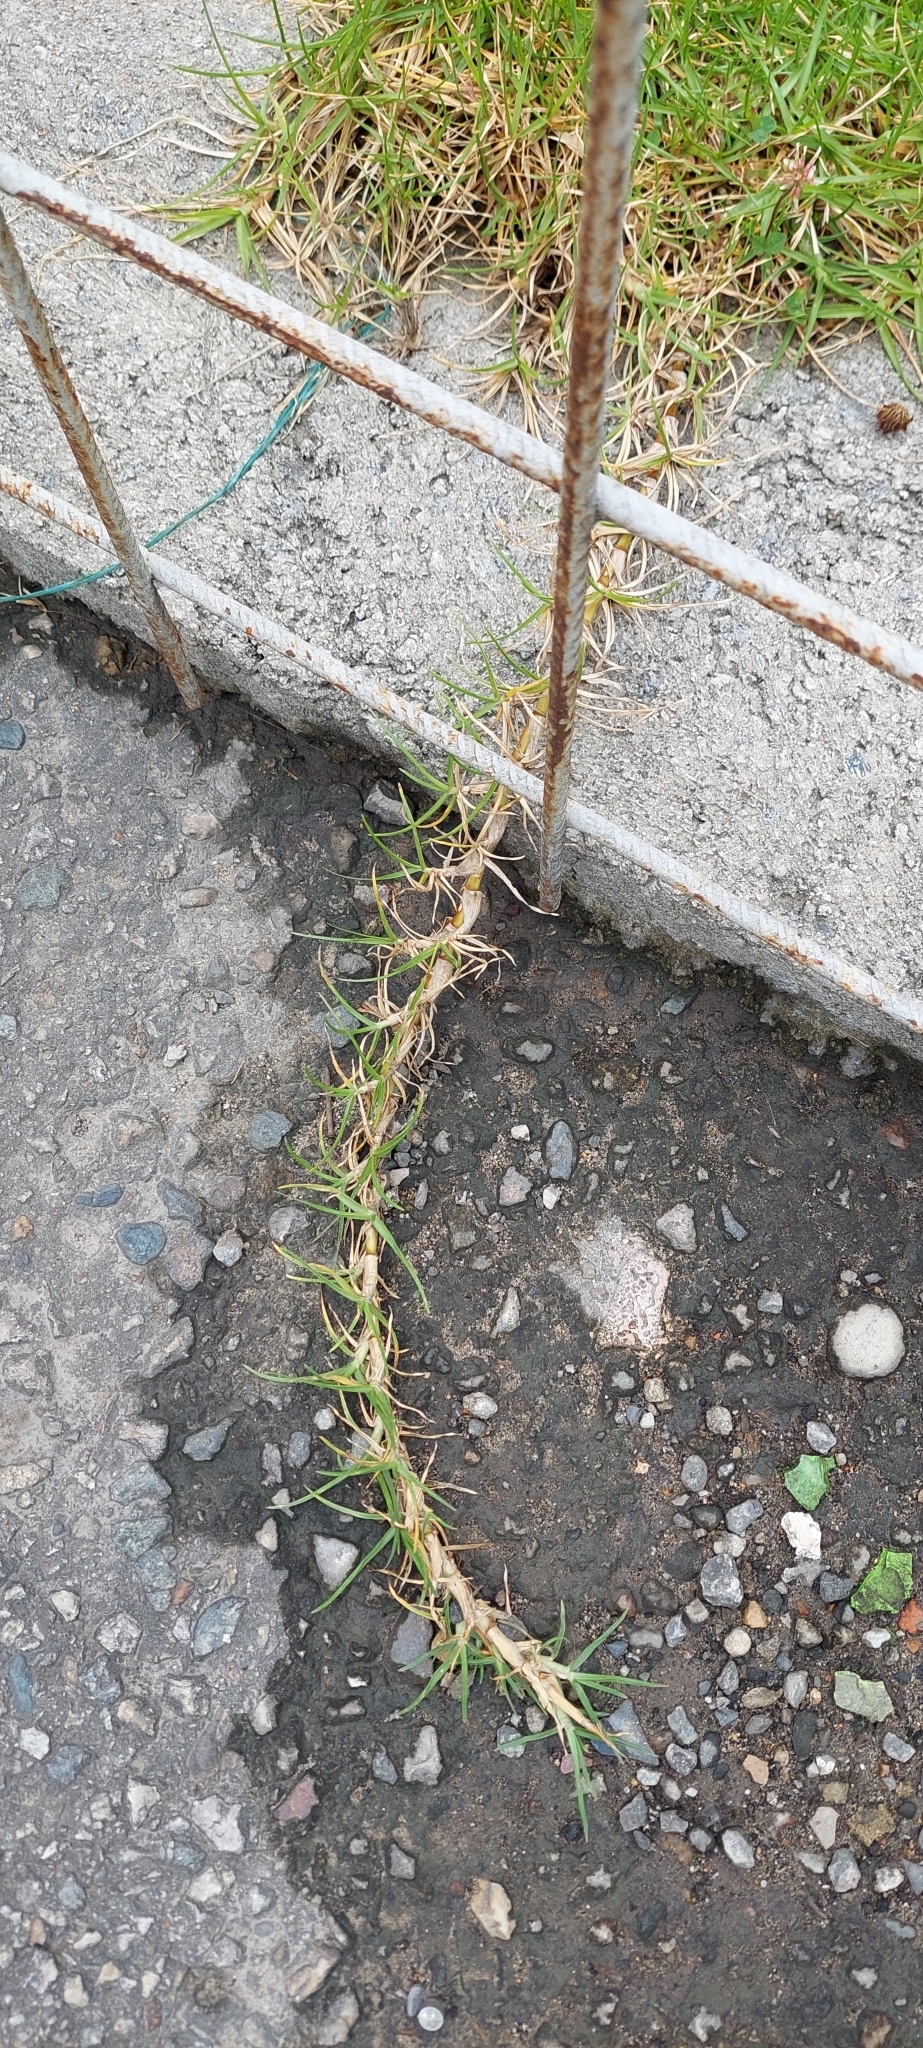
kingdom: Plantae
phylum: Tracheophyta
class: Liliopsida
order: Poales
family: Poaceae
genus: Cenchrus
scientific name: Cenchrus clandestinus
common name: Kikuyugrass
